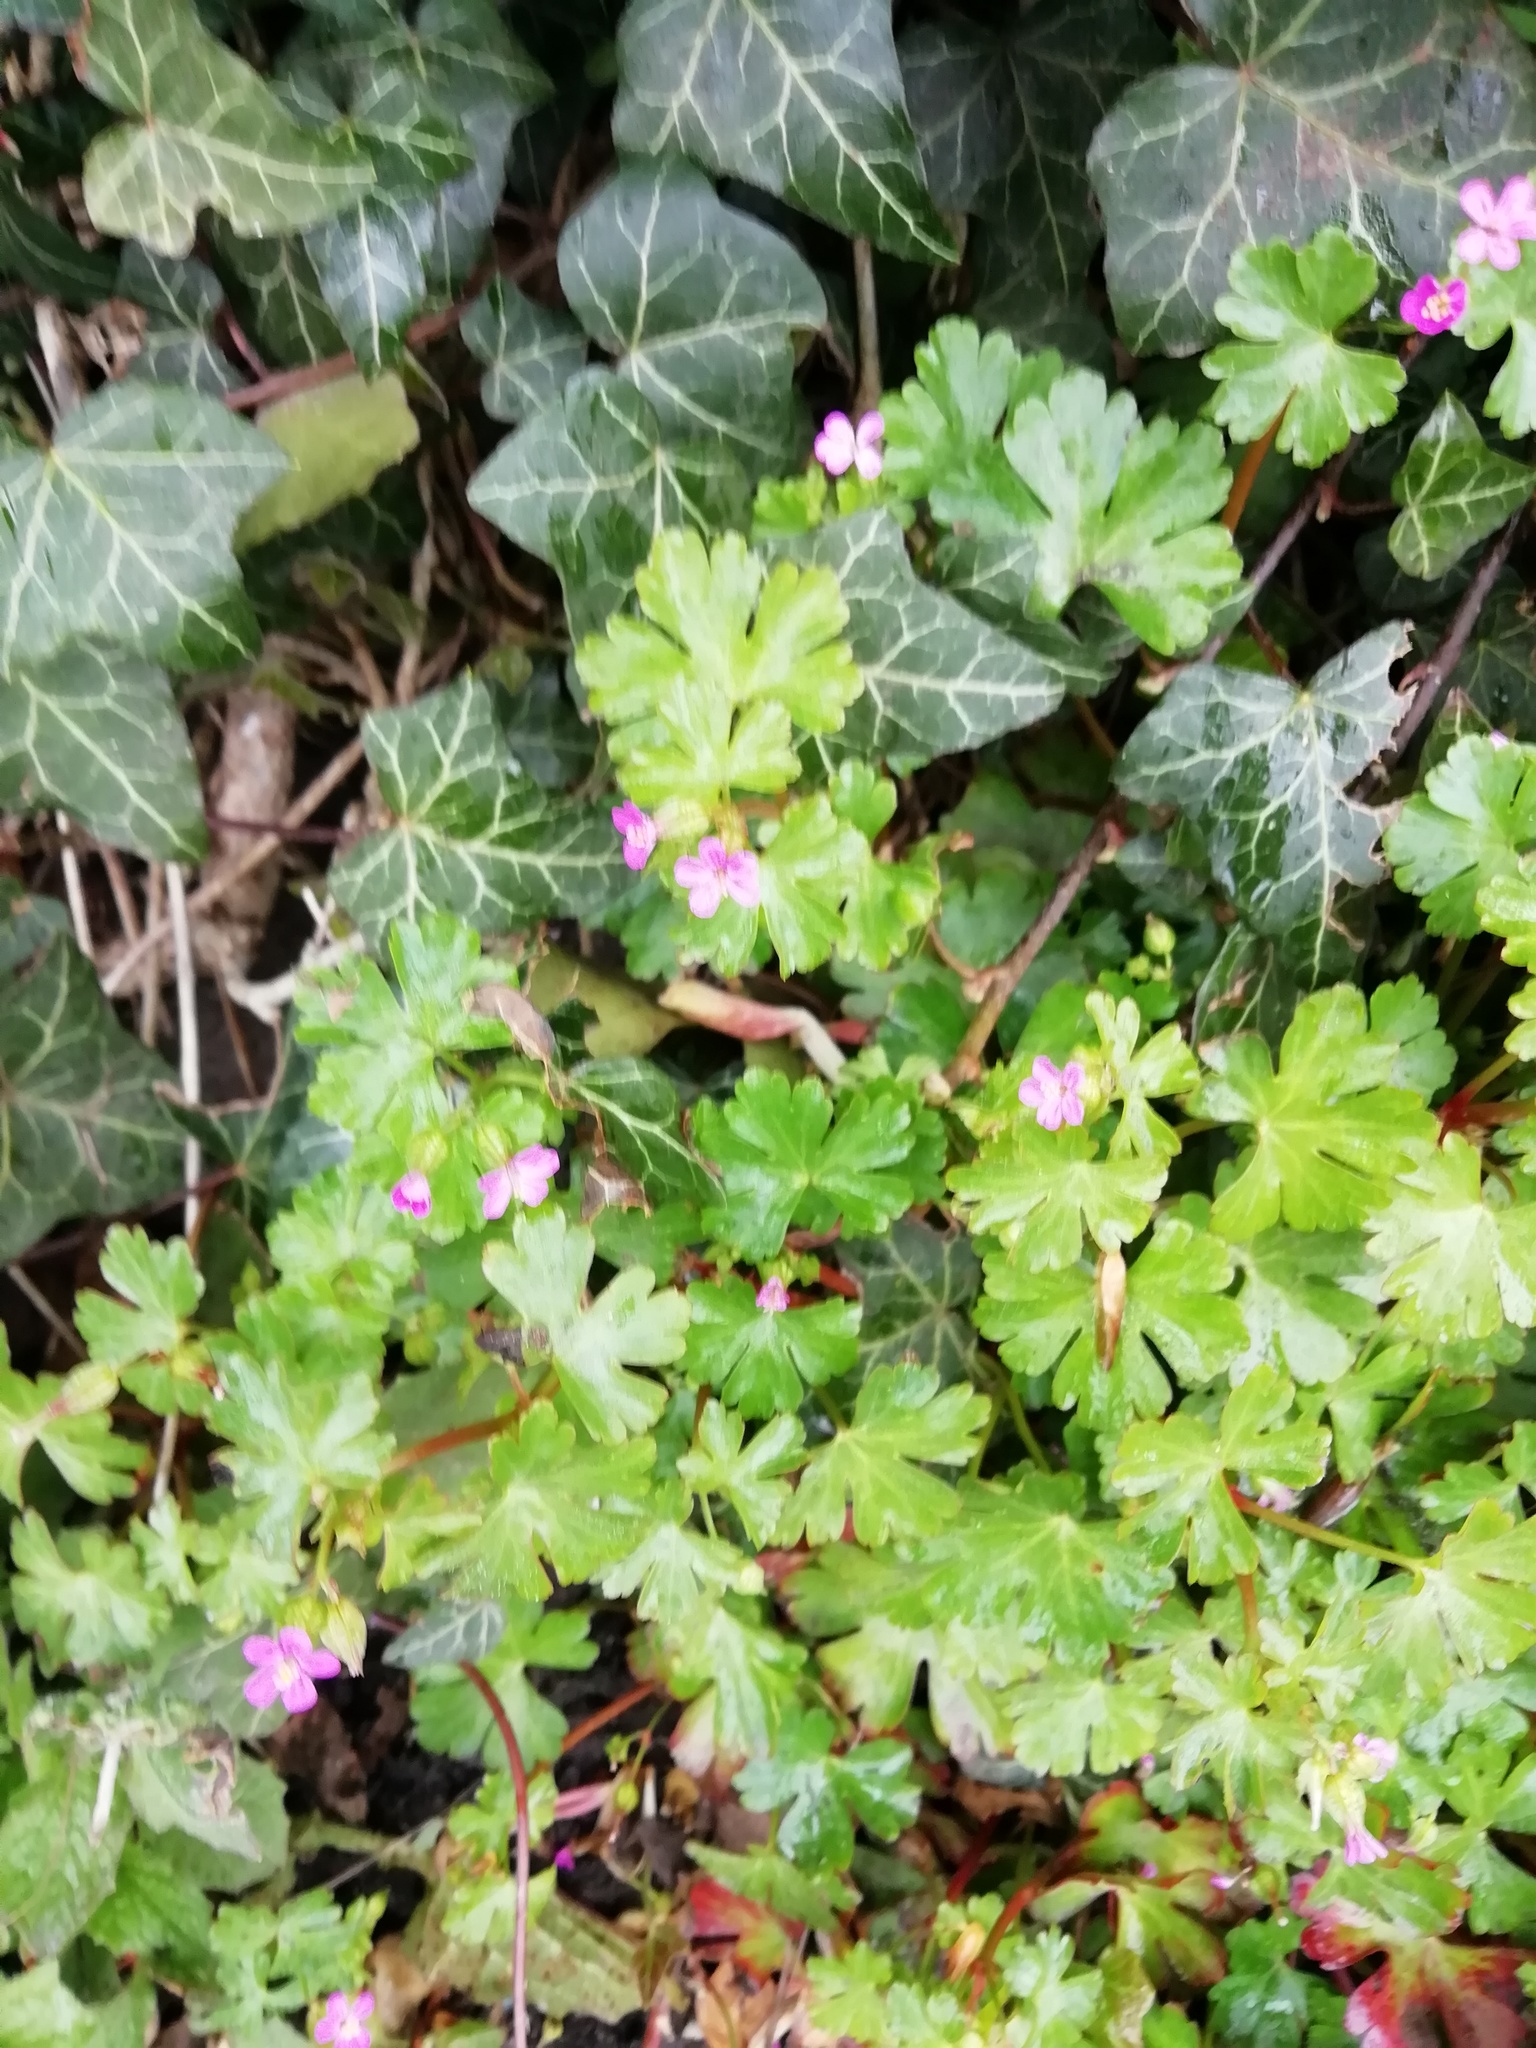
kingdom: Plantae
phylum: Tracheophyta
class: Magnoliopsida
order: Geraniales
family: Geraniaceae
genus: Geranium
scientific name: Geranium lucidum
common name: Shining crane's-bill
